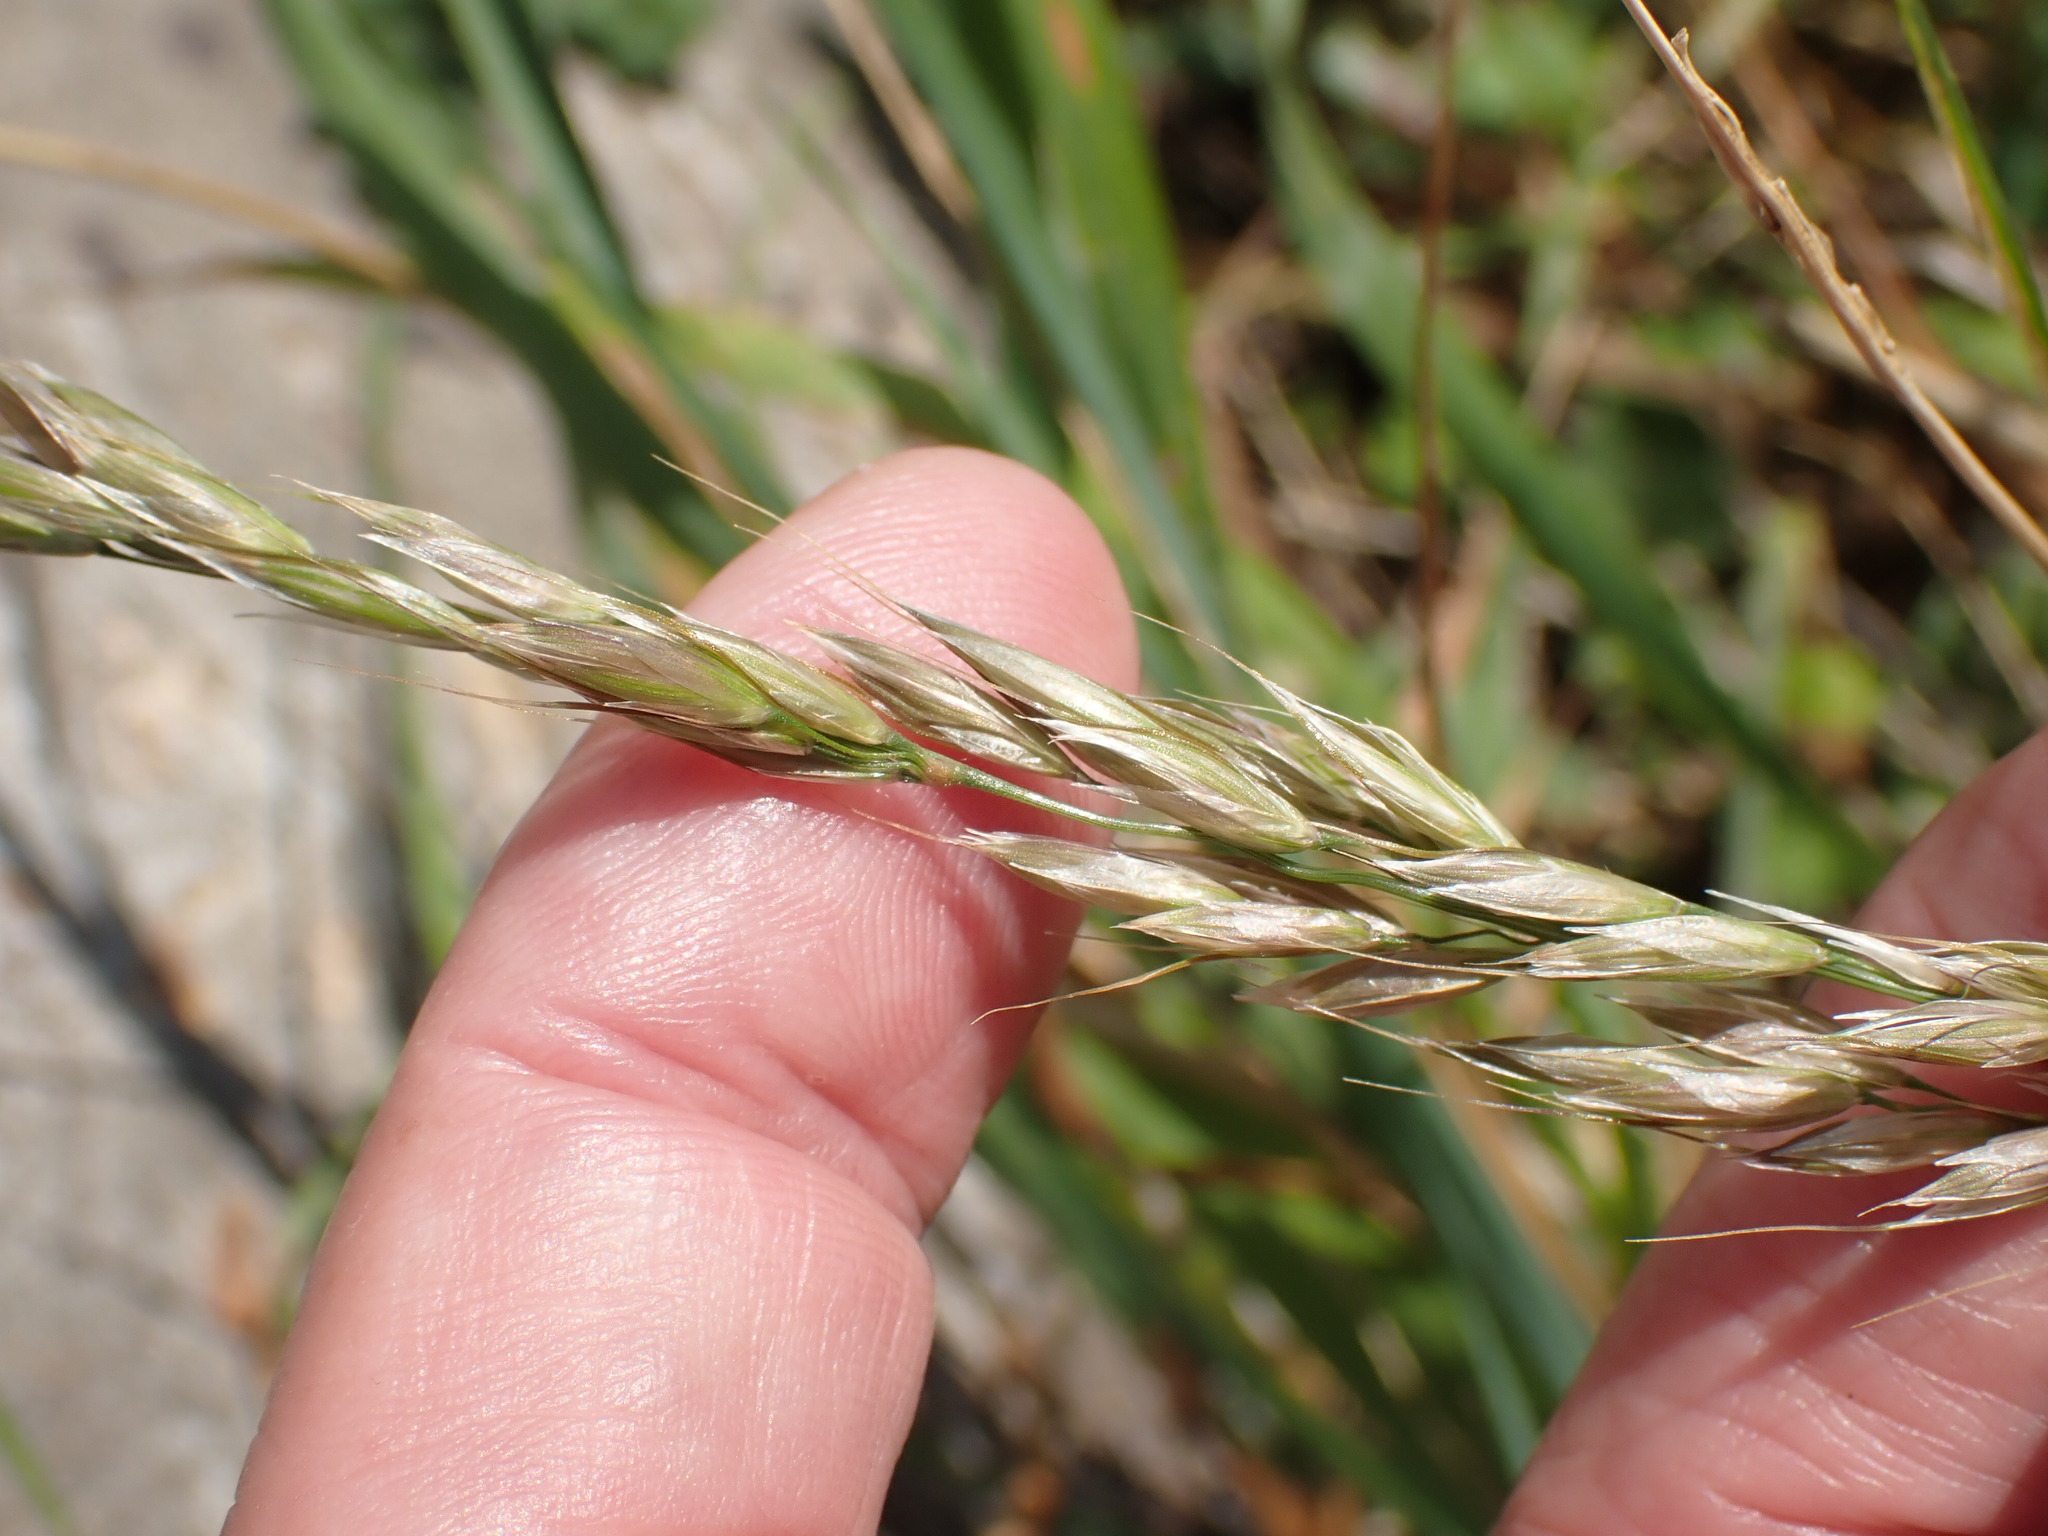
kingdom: Plantae
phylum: Tracheophyta
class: Liliopsida
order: Poales
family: Poaceae
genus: Arrhenatherum
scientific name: Arrhenatherum elatius
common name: Tall oatgrass
